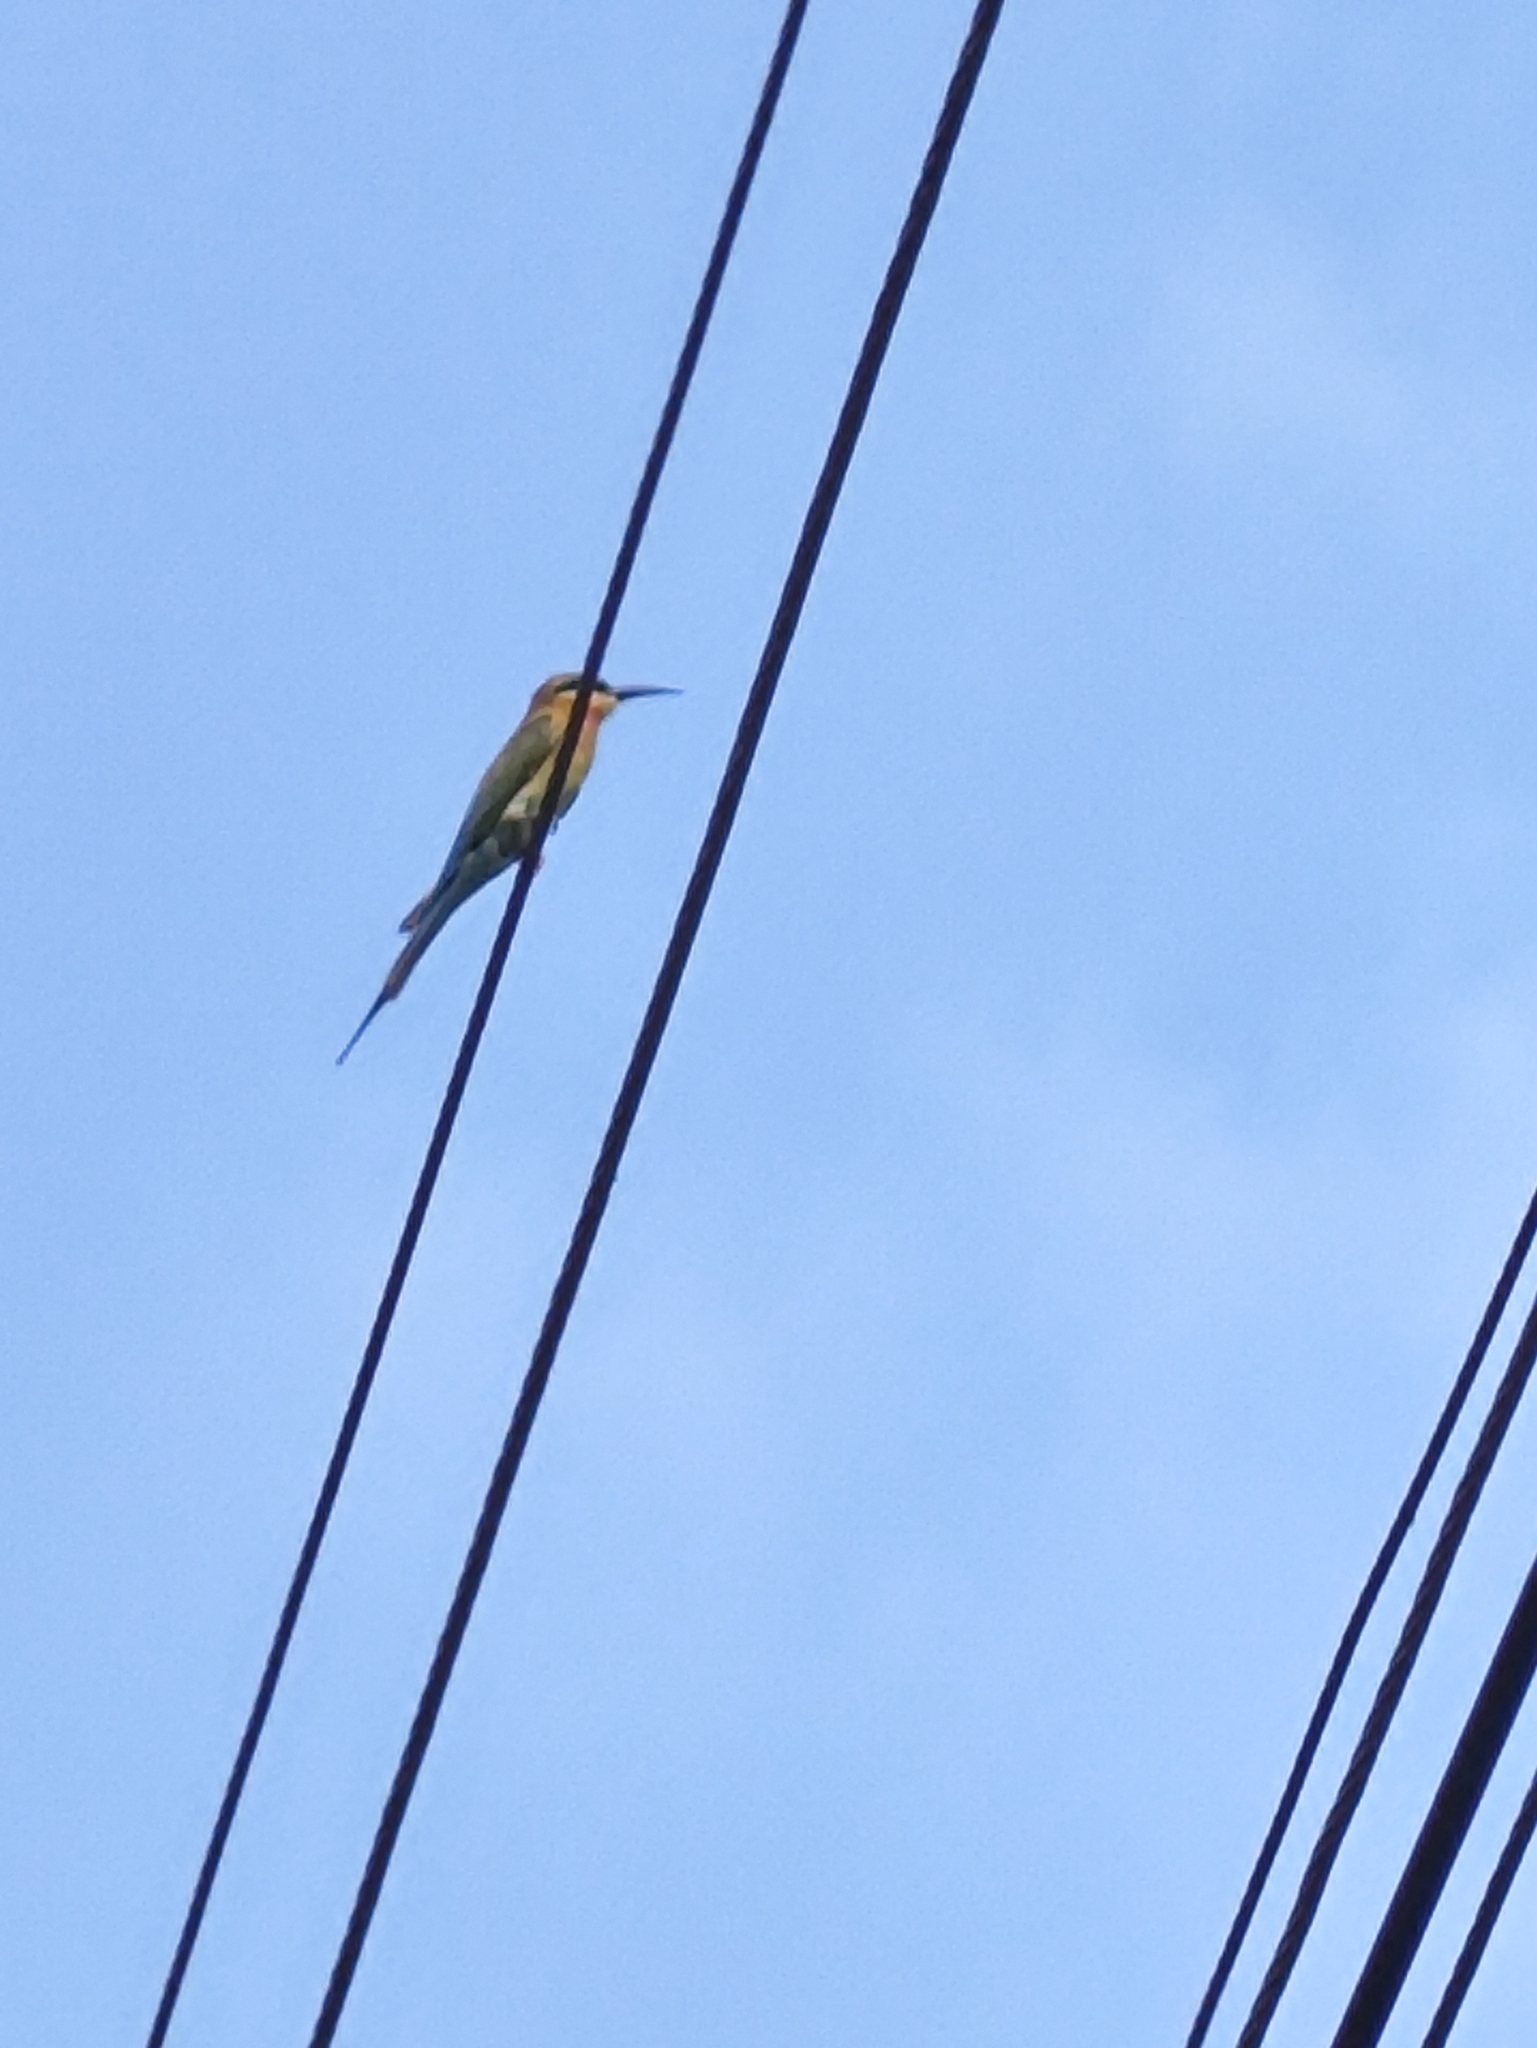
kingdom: Animalia
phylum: Chordata
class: Aves
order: Coraciiformes
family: Meropidae
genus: Merops
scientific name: Merops philippinus
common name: Blue-tailed bee-eater
